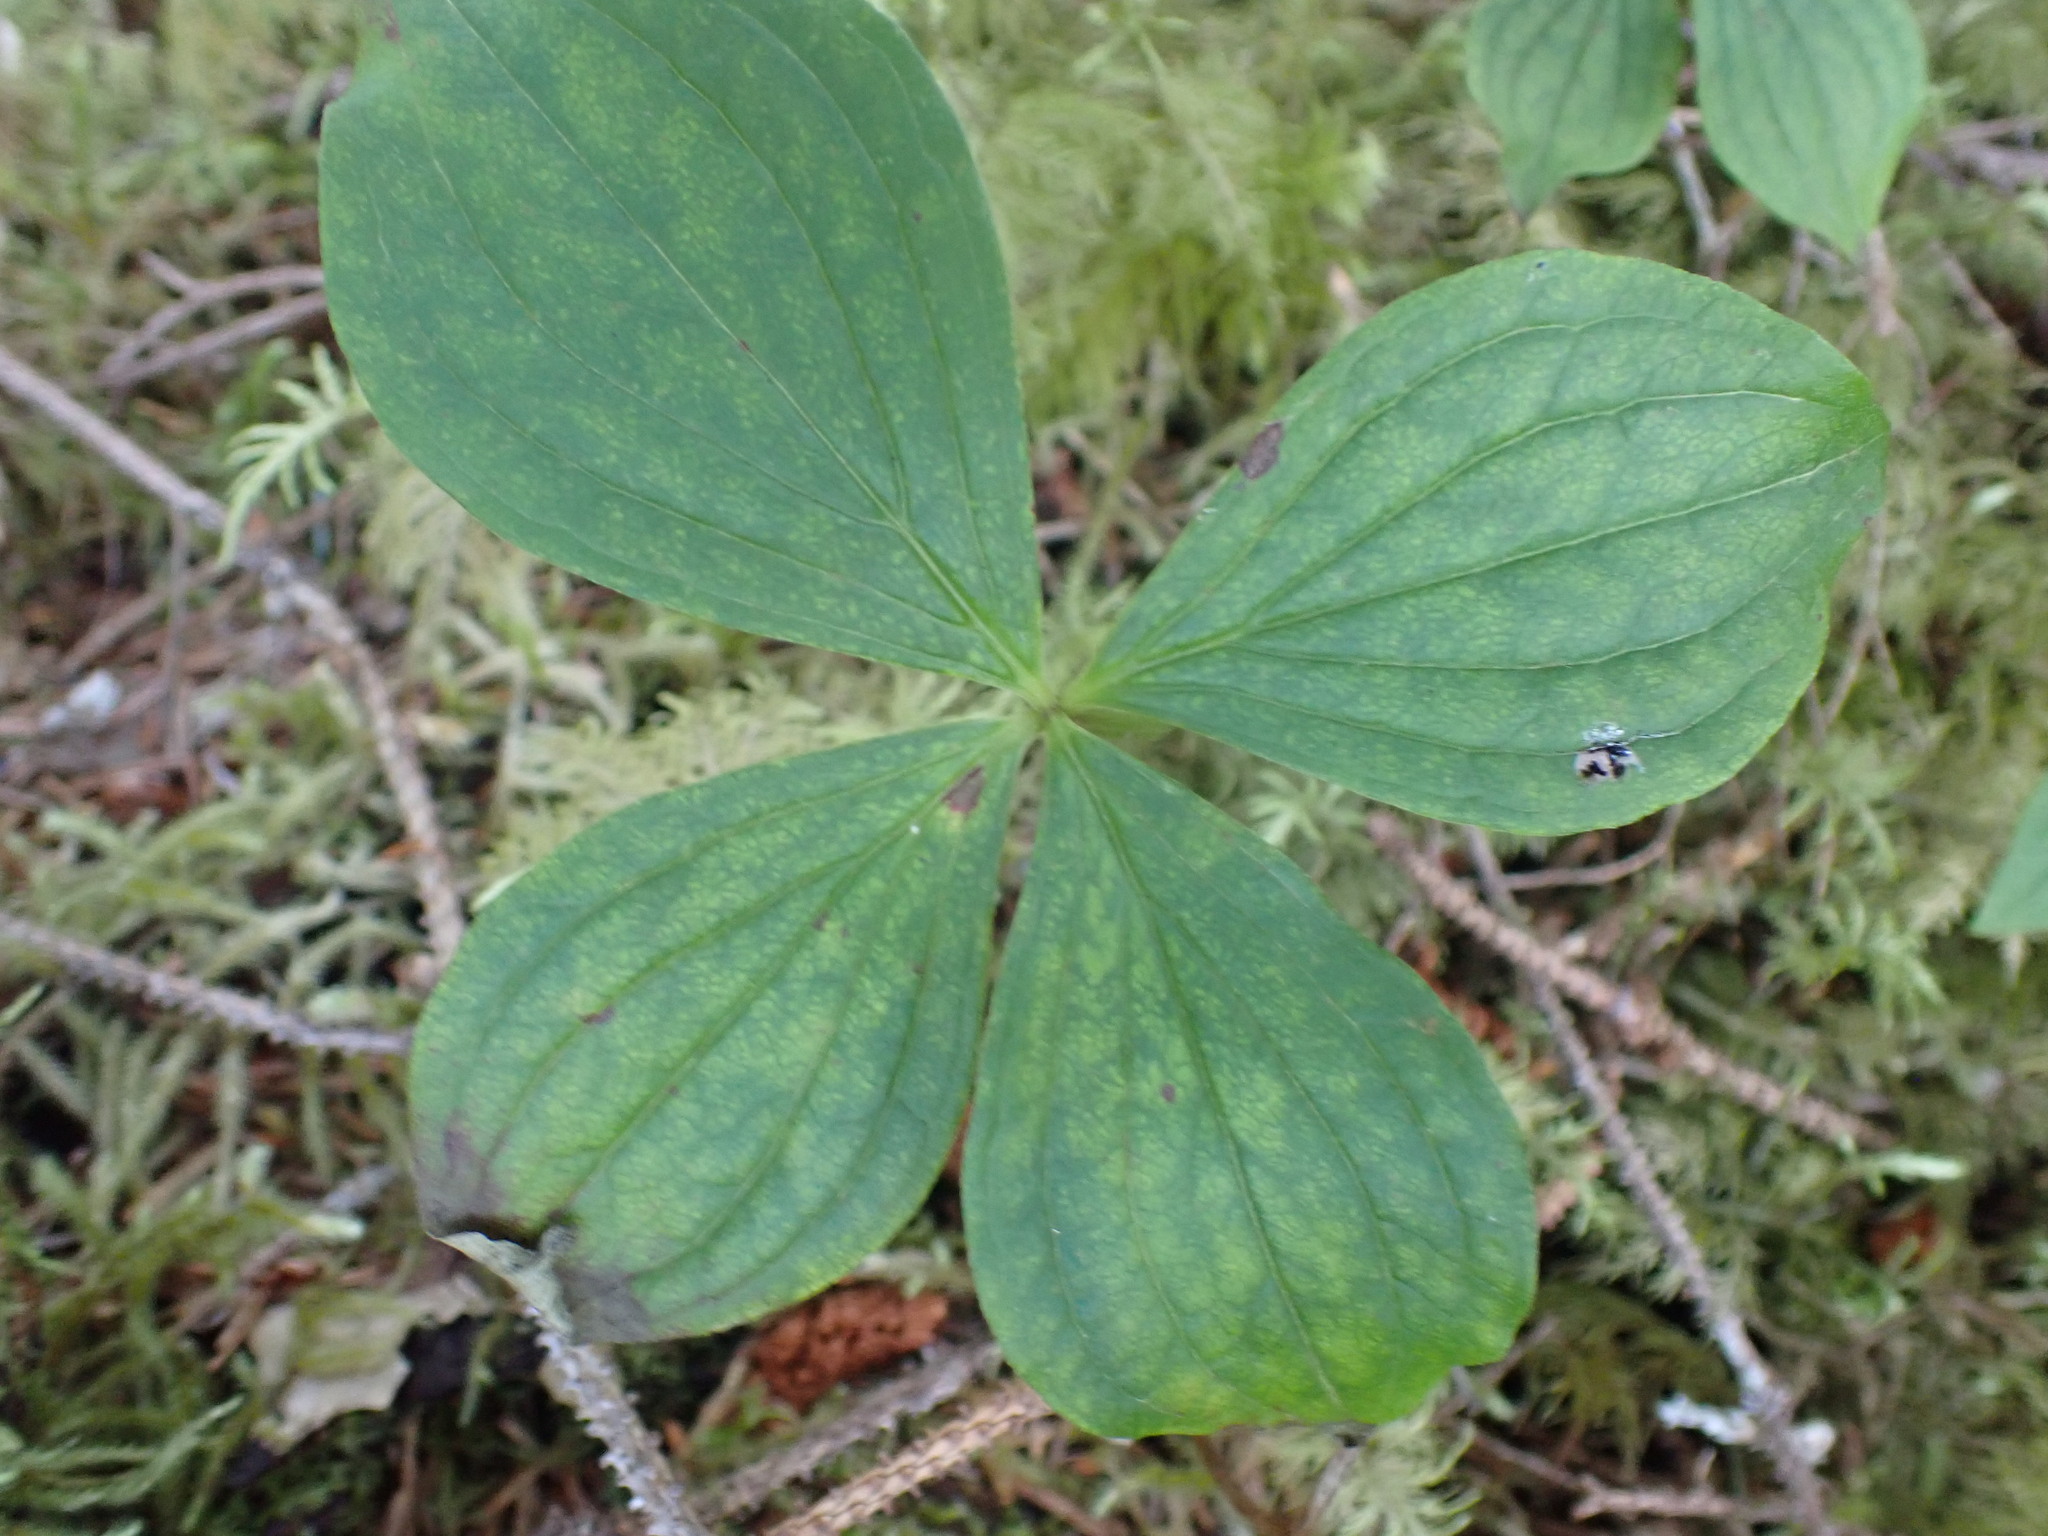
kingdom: Plantae
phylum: Tracheophyta
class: Magnoliopsida
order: Cornales
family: Cornaceae
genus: Cornus
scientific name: Cornus unalaschkensis
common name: Alaska bunchberry
